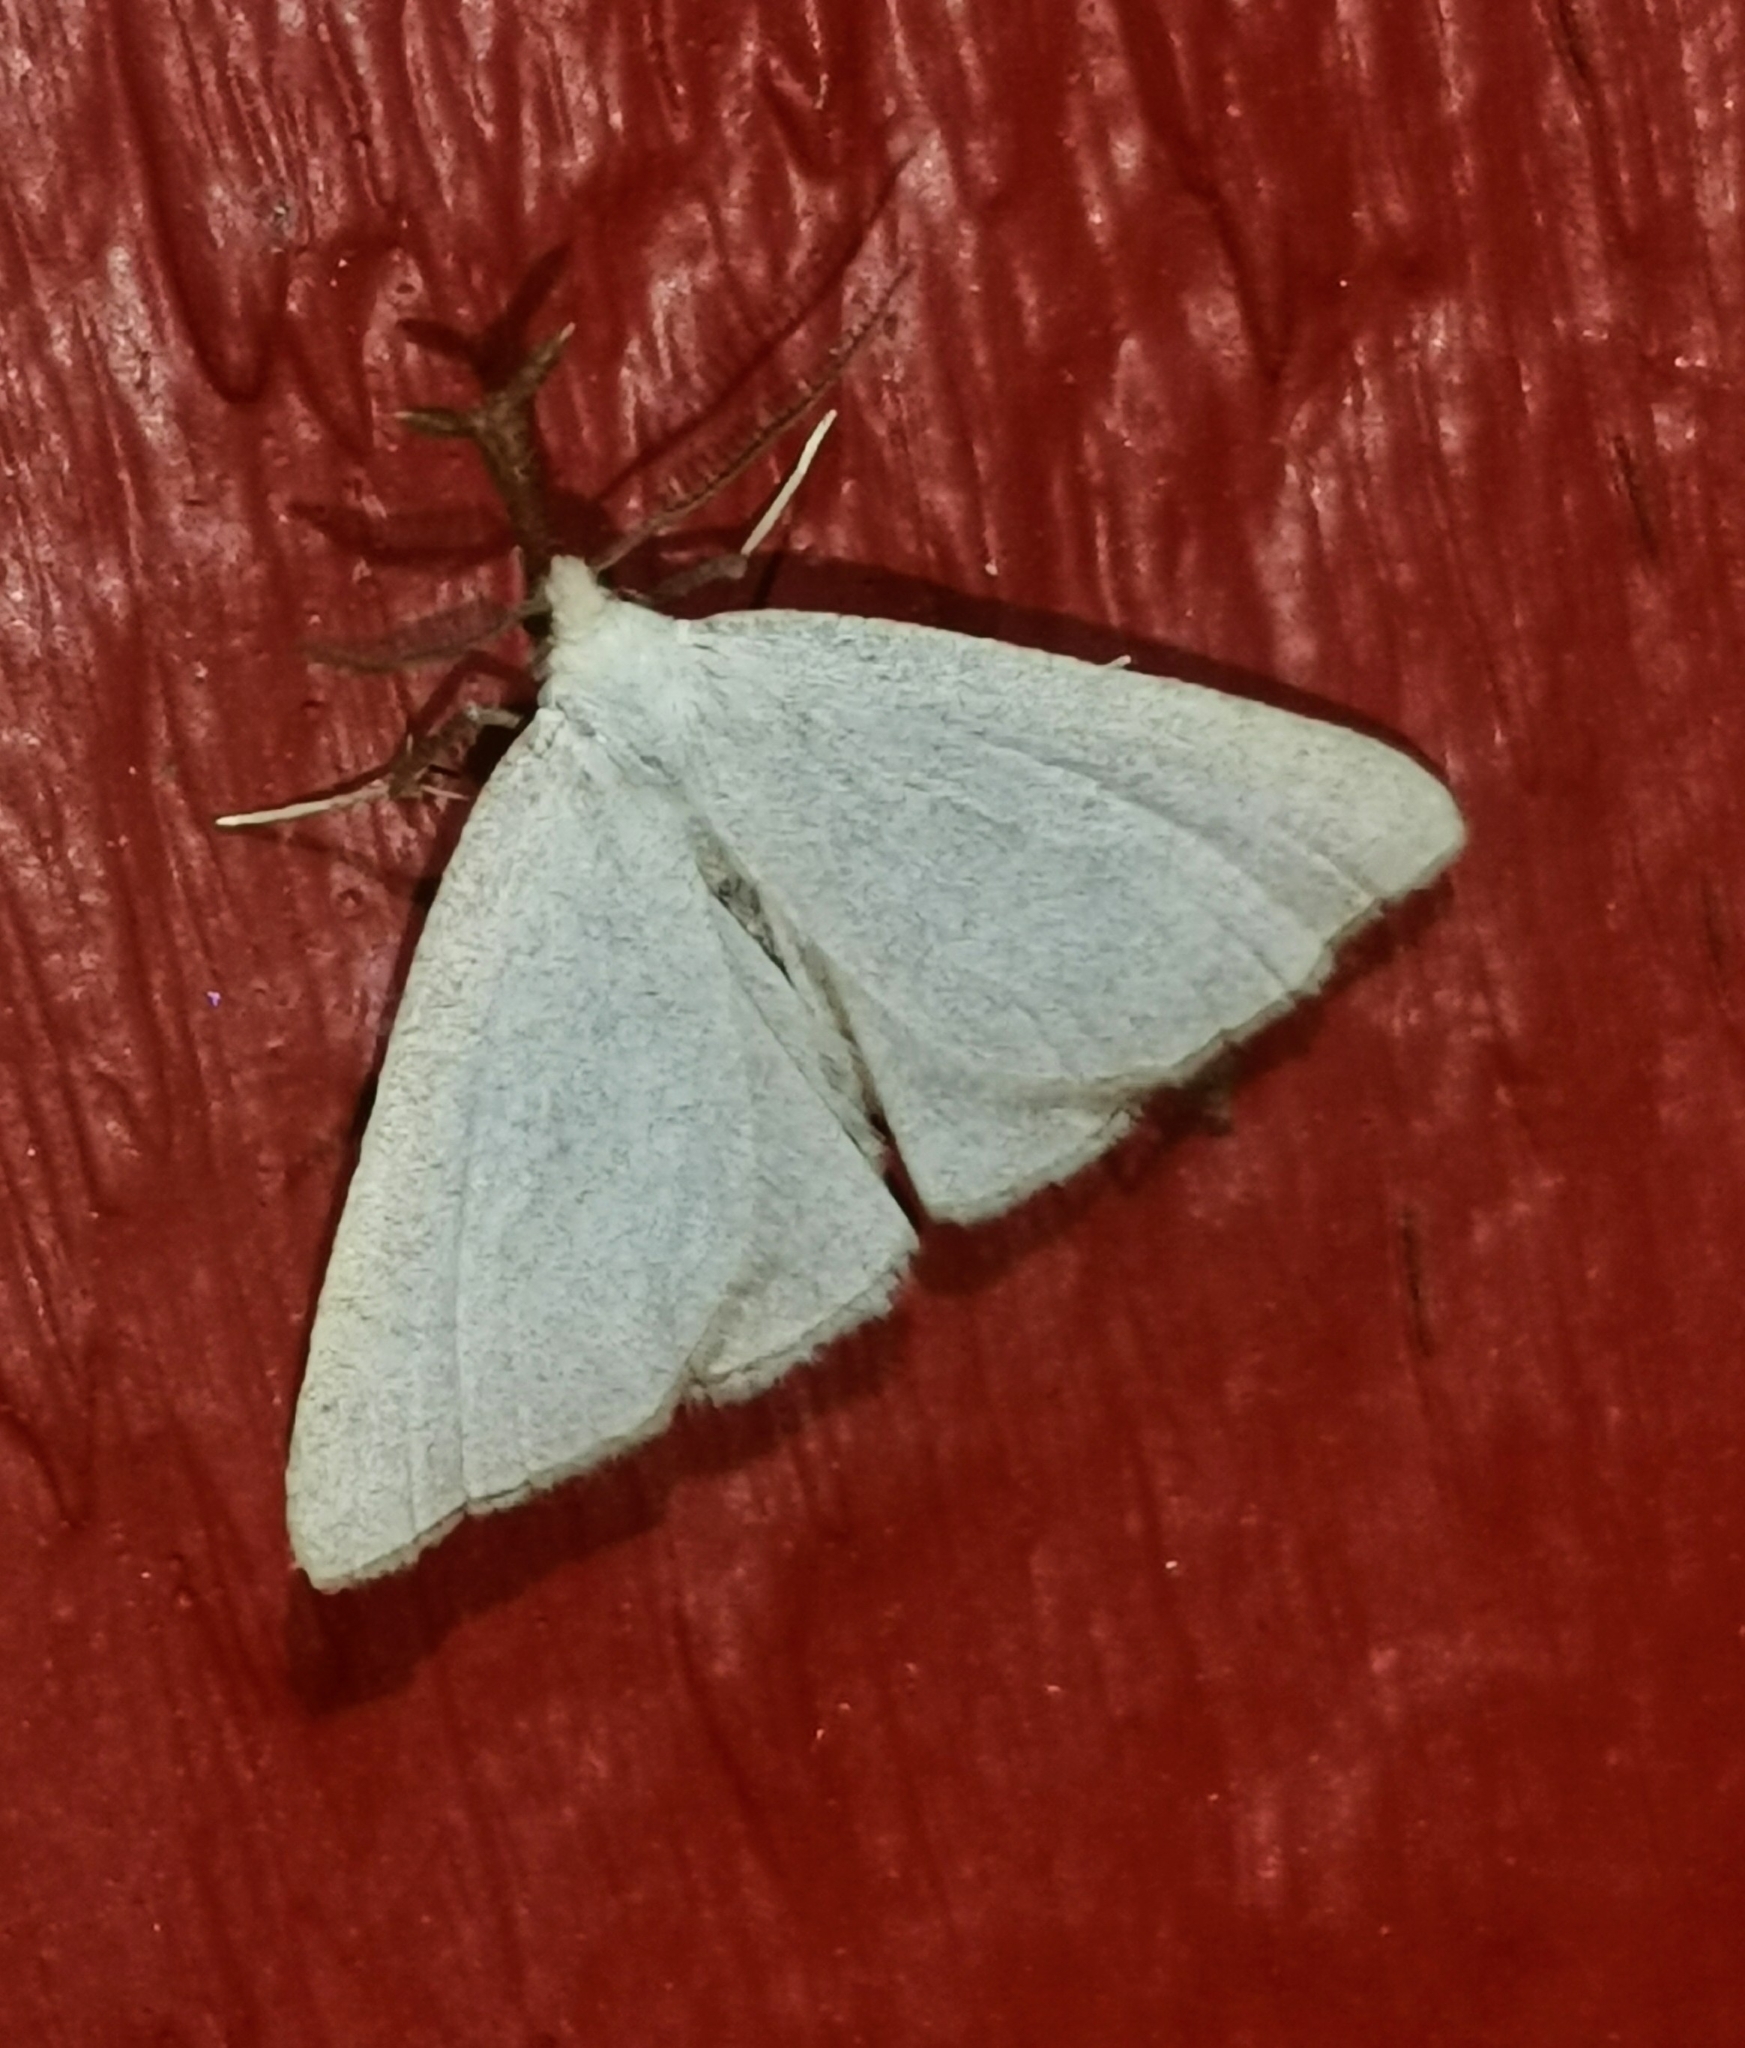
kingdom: Animalia
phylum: Arthropoda
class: Insecta
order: Lepidoptera
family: Erebidae
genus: Polypogon
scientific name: Polypogon tentacularia
